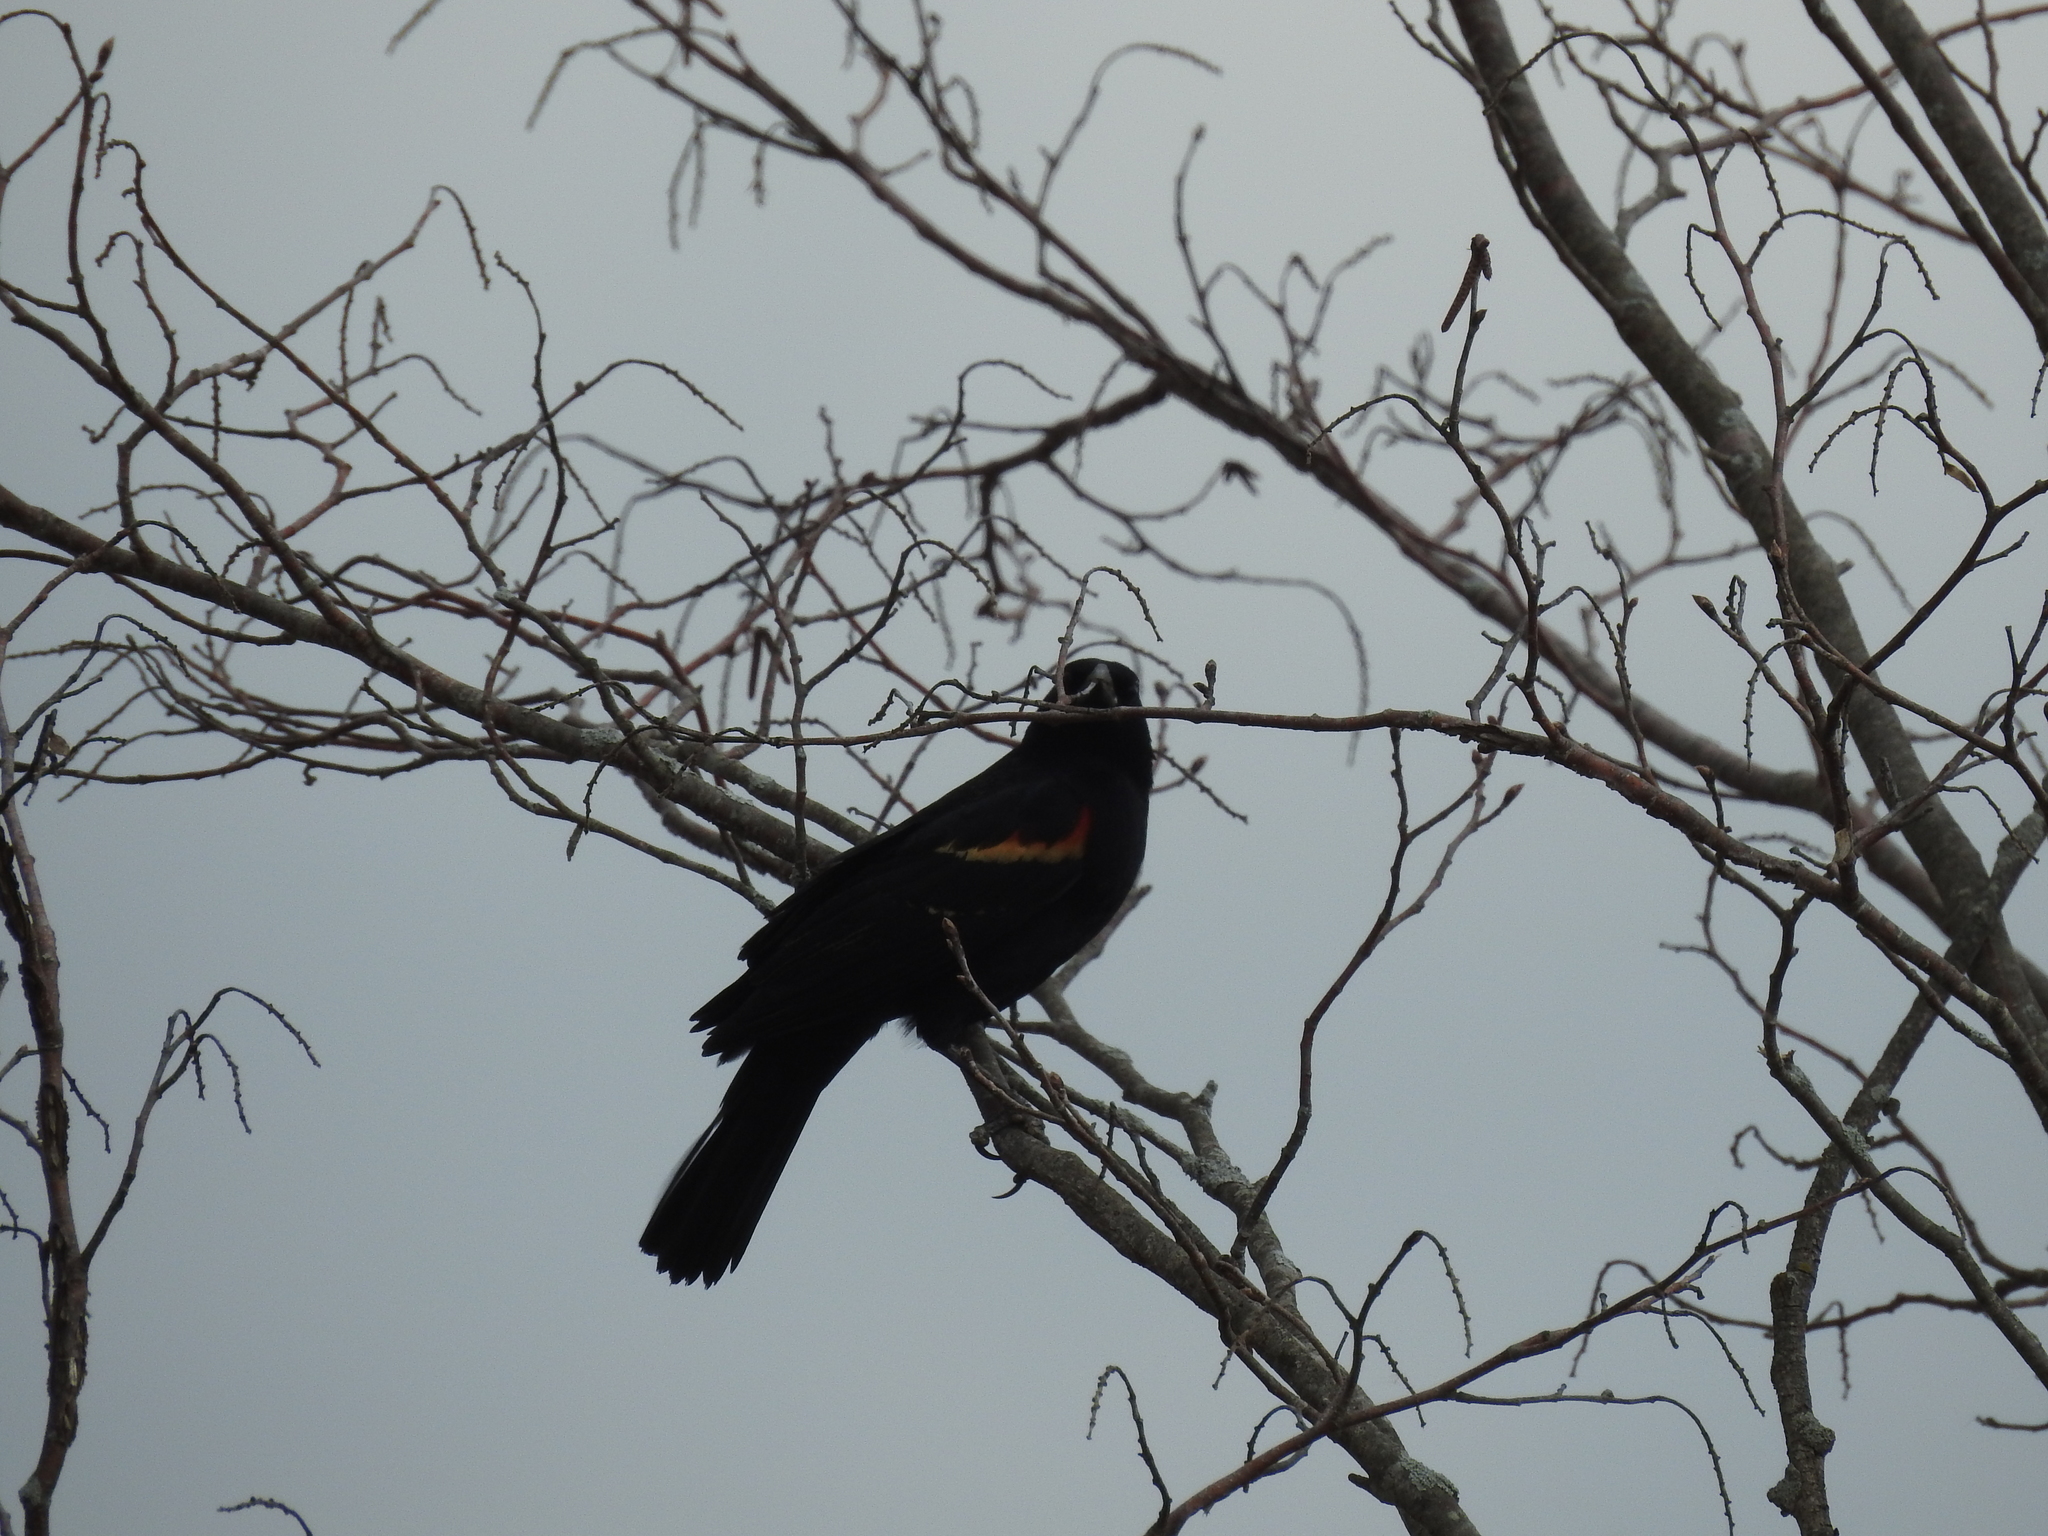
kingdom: Animalia
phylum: Chordata
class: Aves
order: Passeriformes
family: Icteridae
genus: Agelaius
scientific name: Agelaius phoeniceus
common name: Red-winged blackbird
